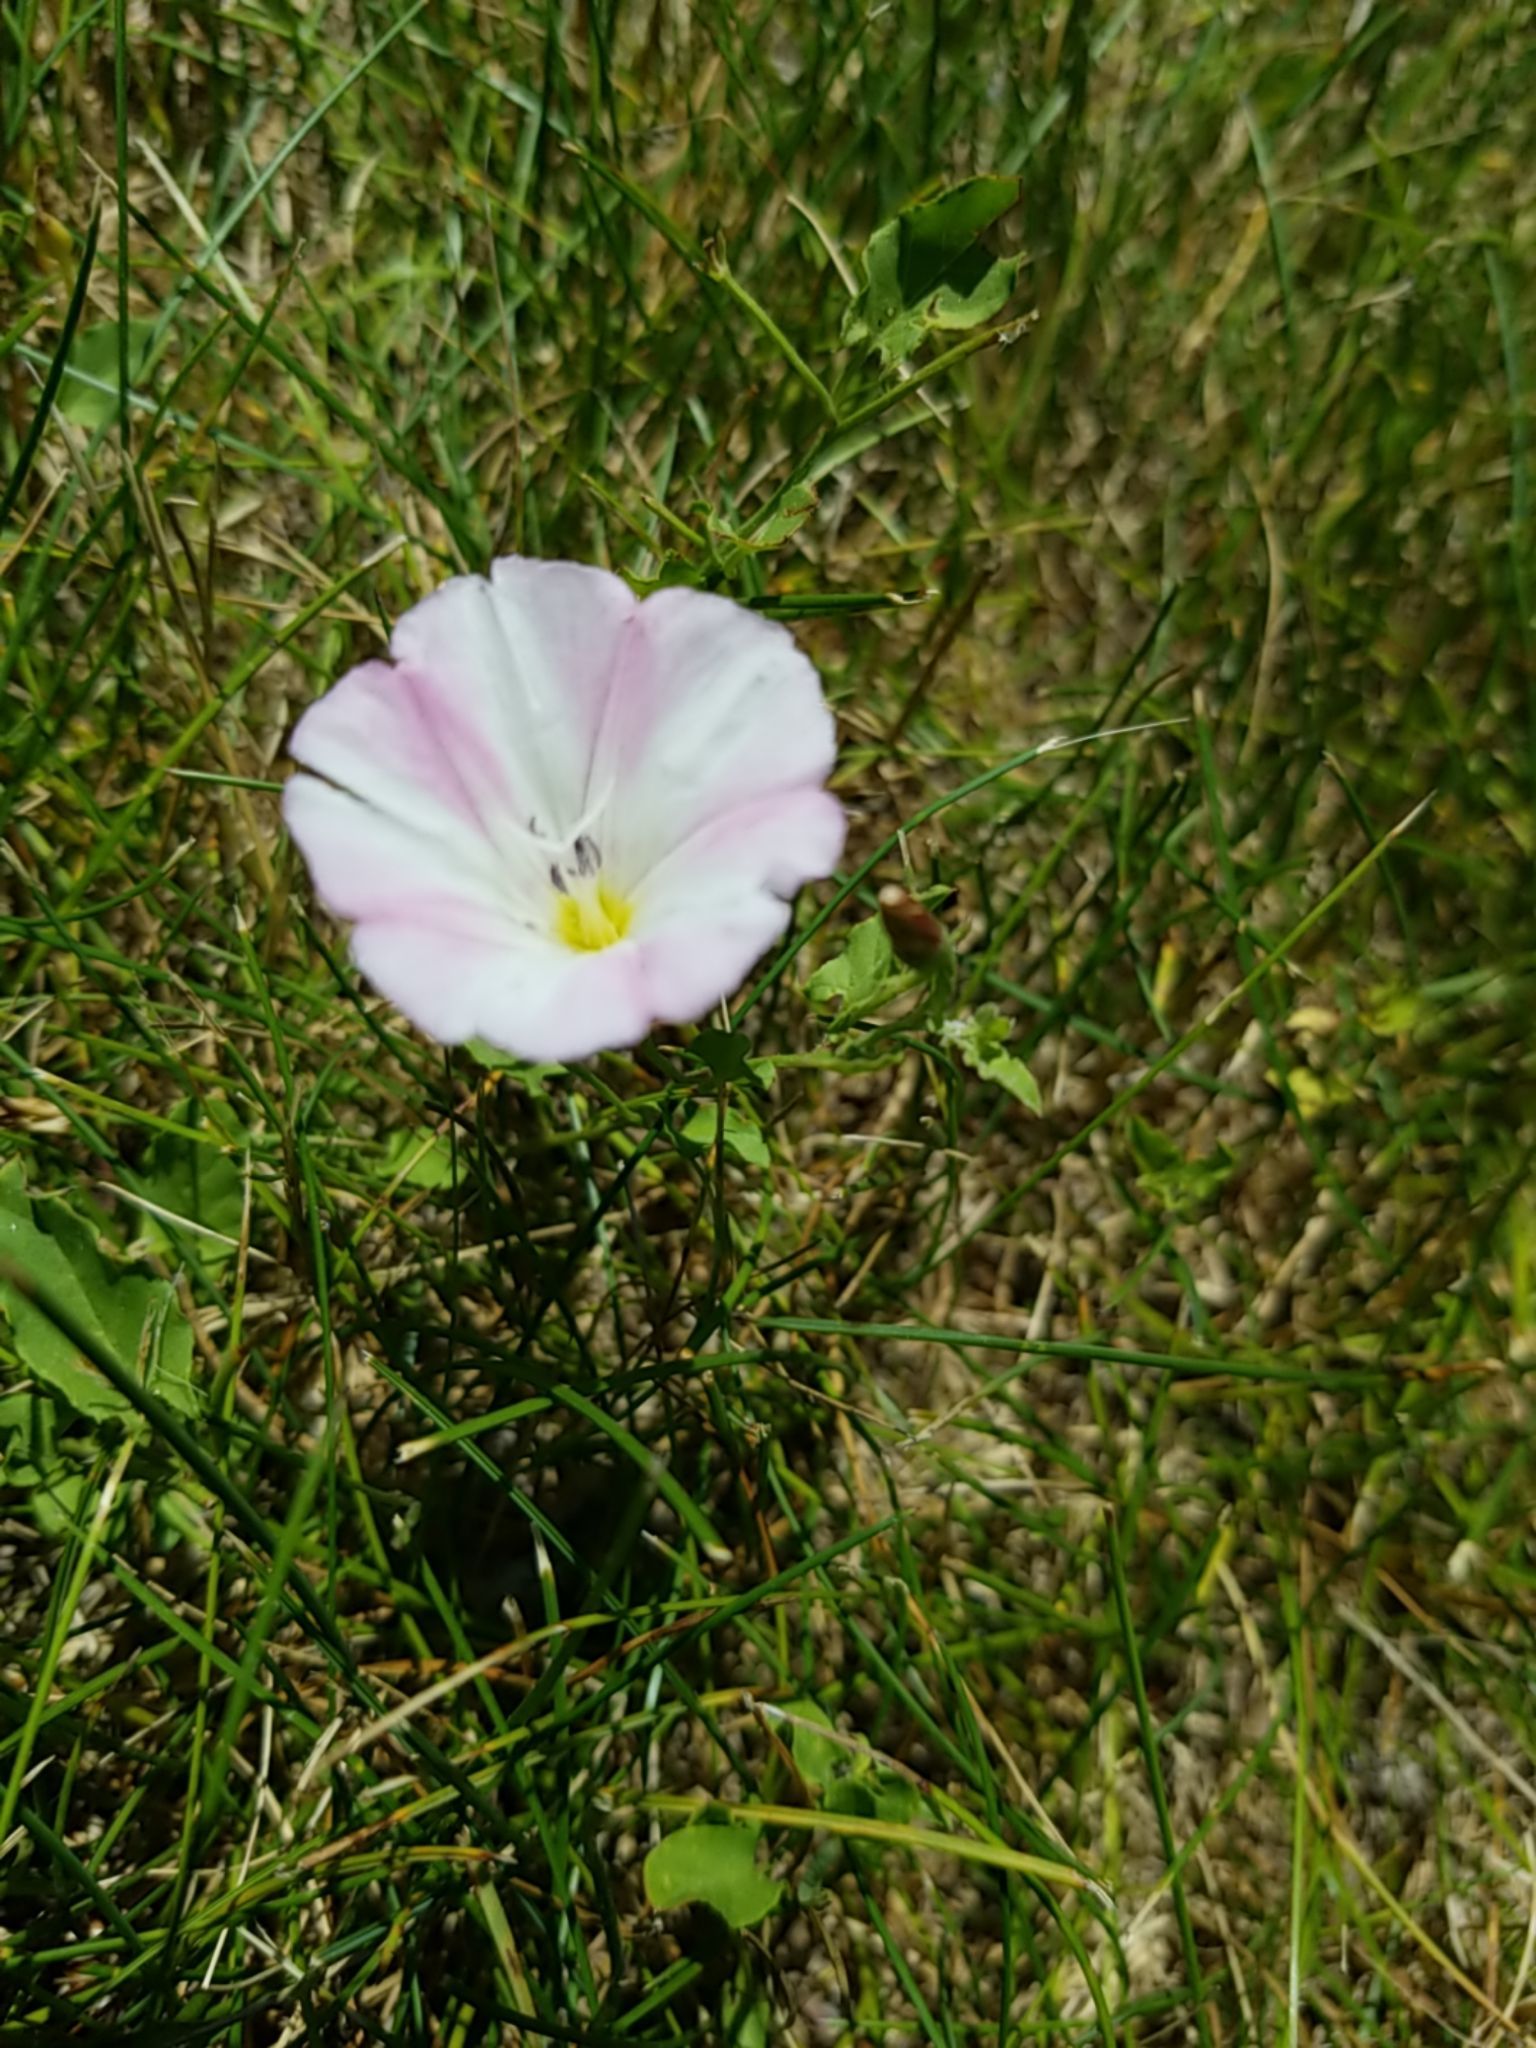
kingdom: Plantae
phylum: Tracheophyta
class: Magnoliopsida
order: Solanales
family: Convolvulaceae
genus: Convolvulus
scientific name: Convolvulus arvensis
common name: Field bindweed
